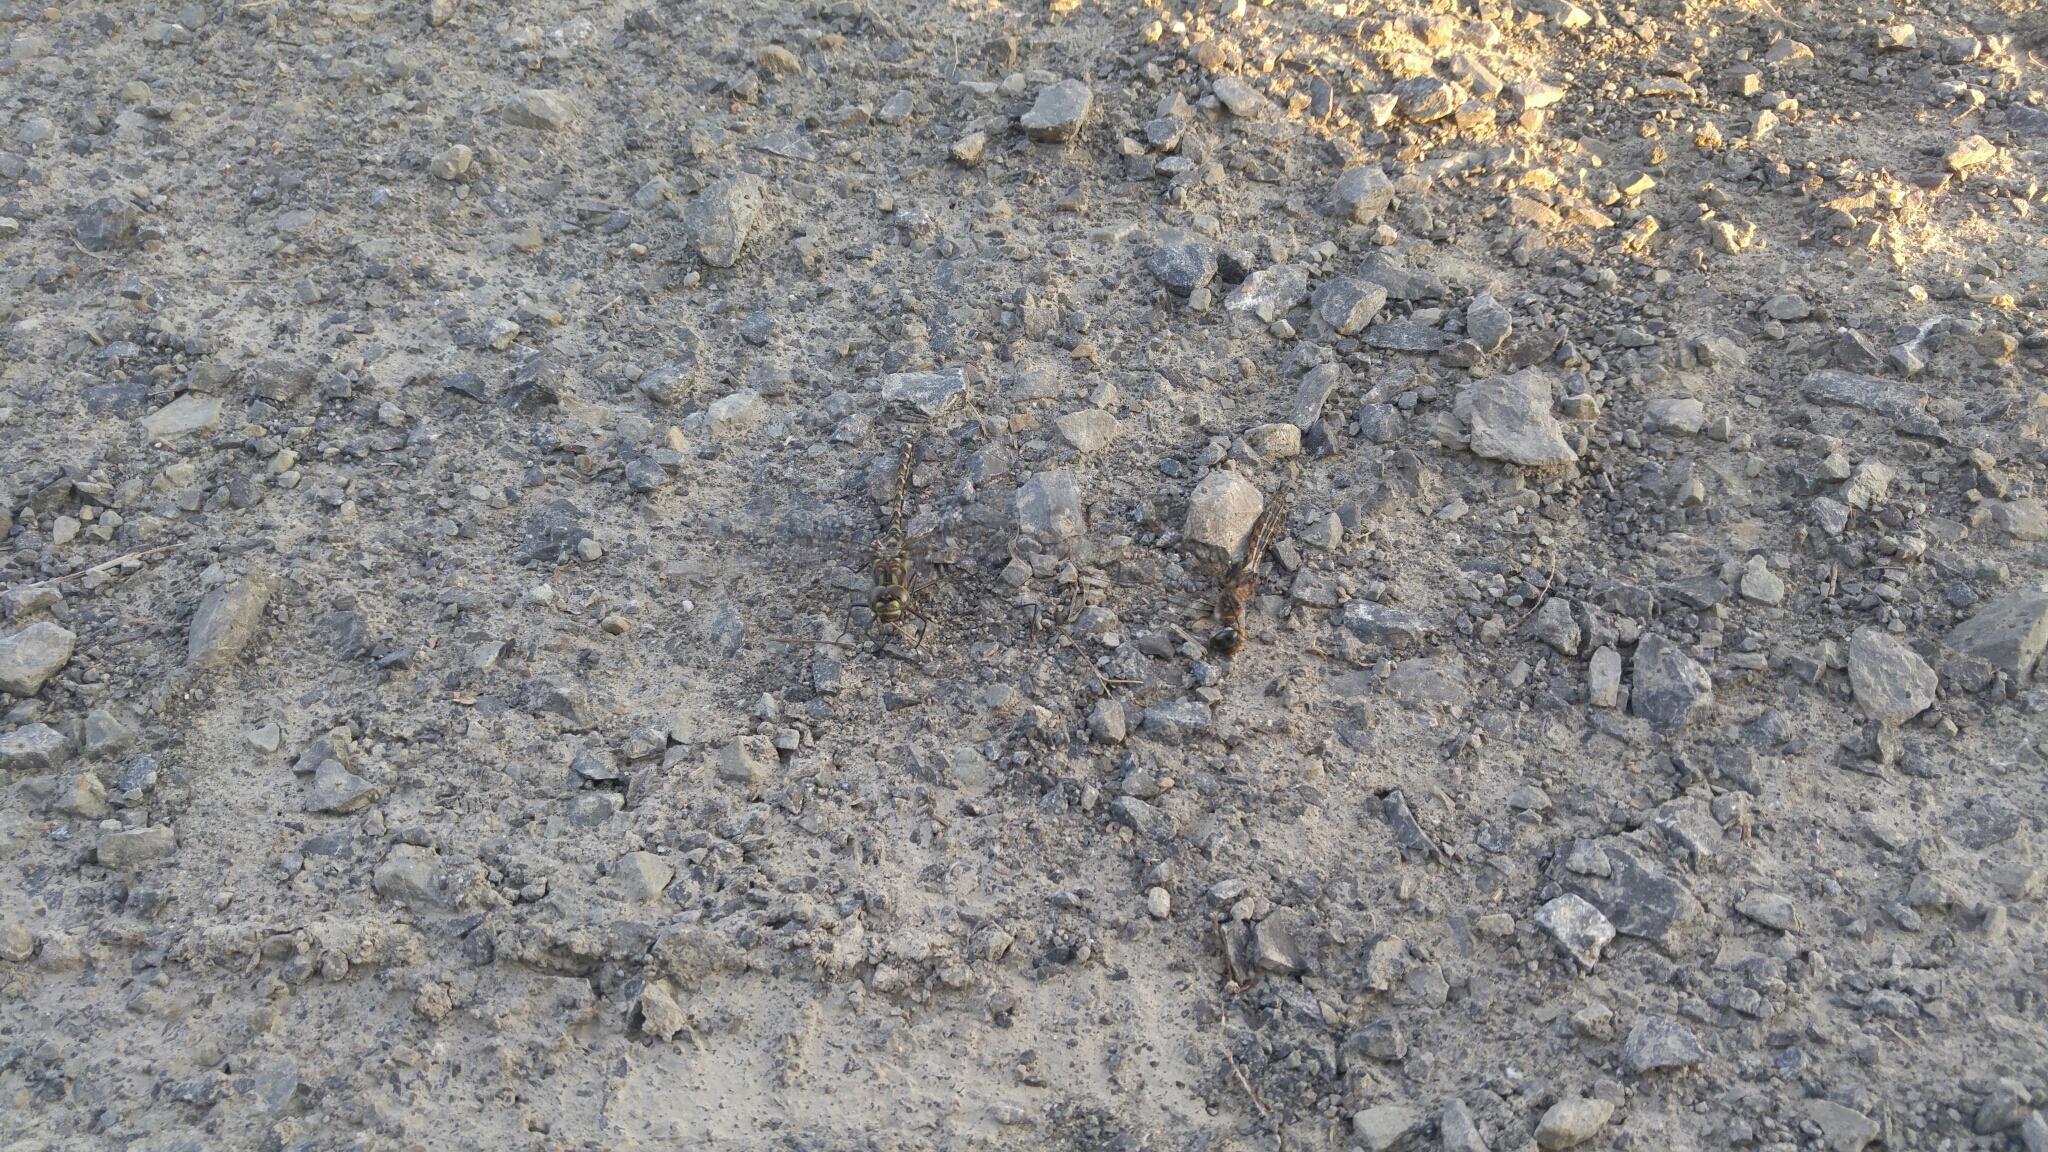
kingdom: Animalia
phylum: Arthropoda
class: Insecta
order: Odonata
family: Aeshnidae
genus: Gomphaeschna
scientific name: Gomphaeschna furcillata
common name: Harlequin darner
